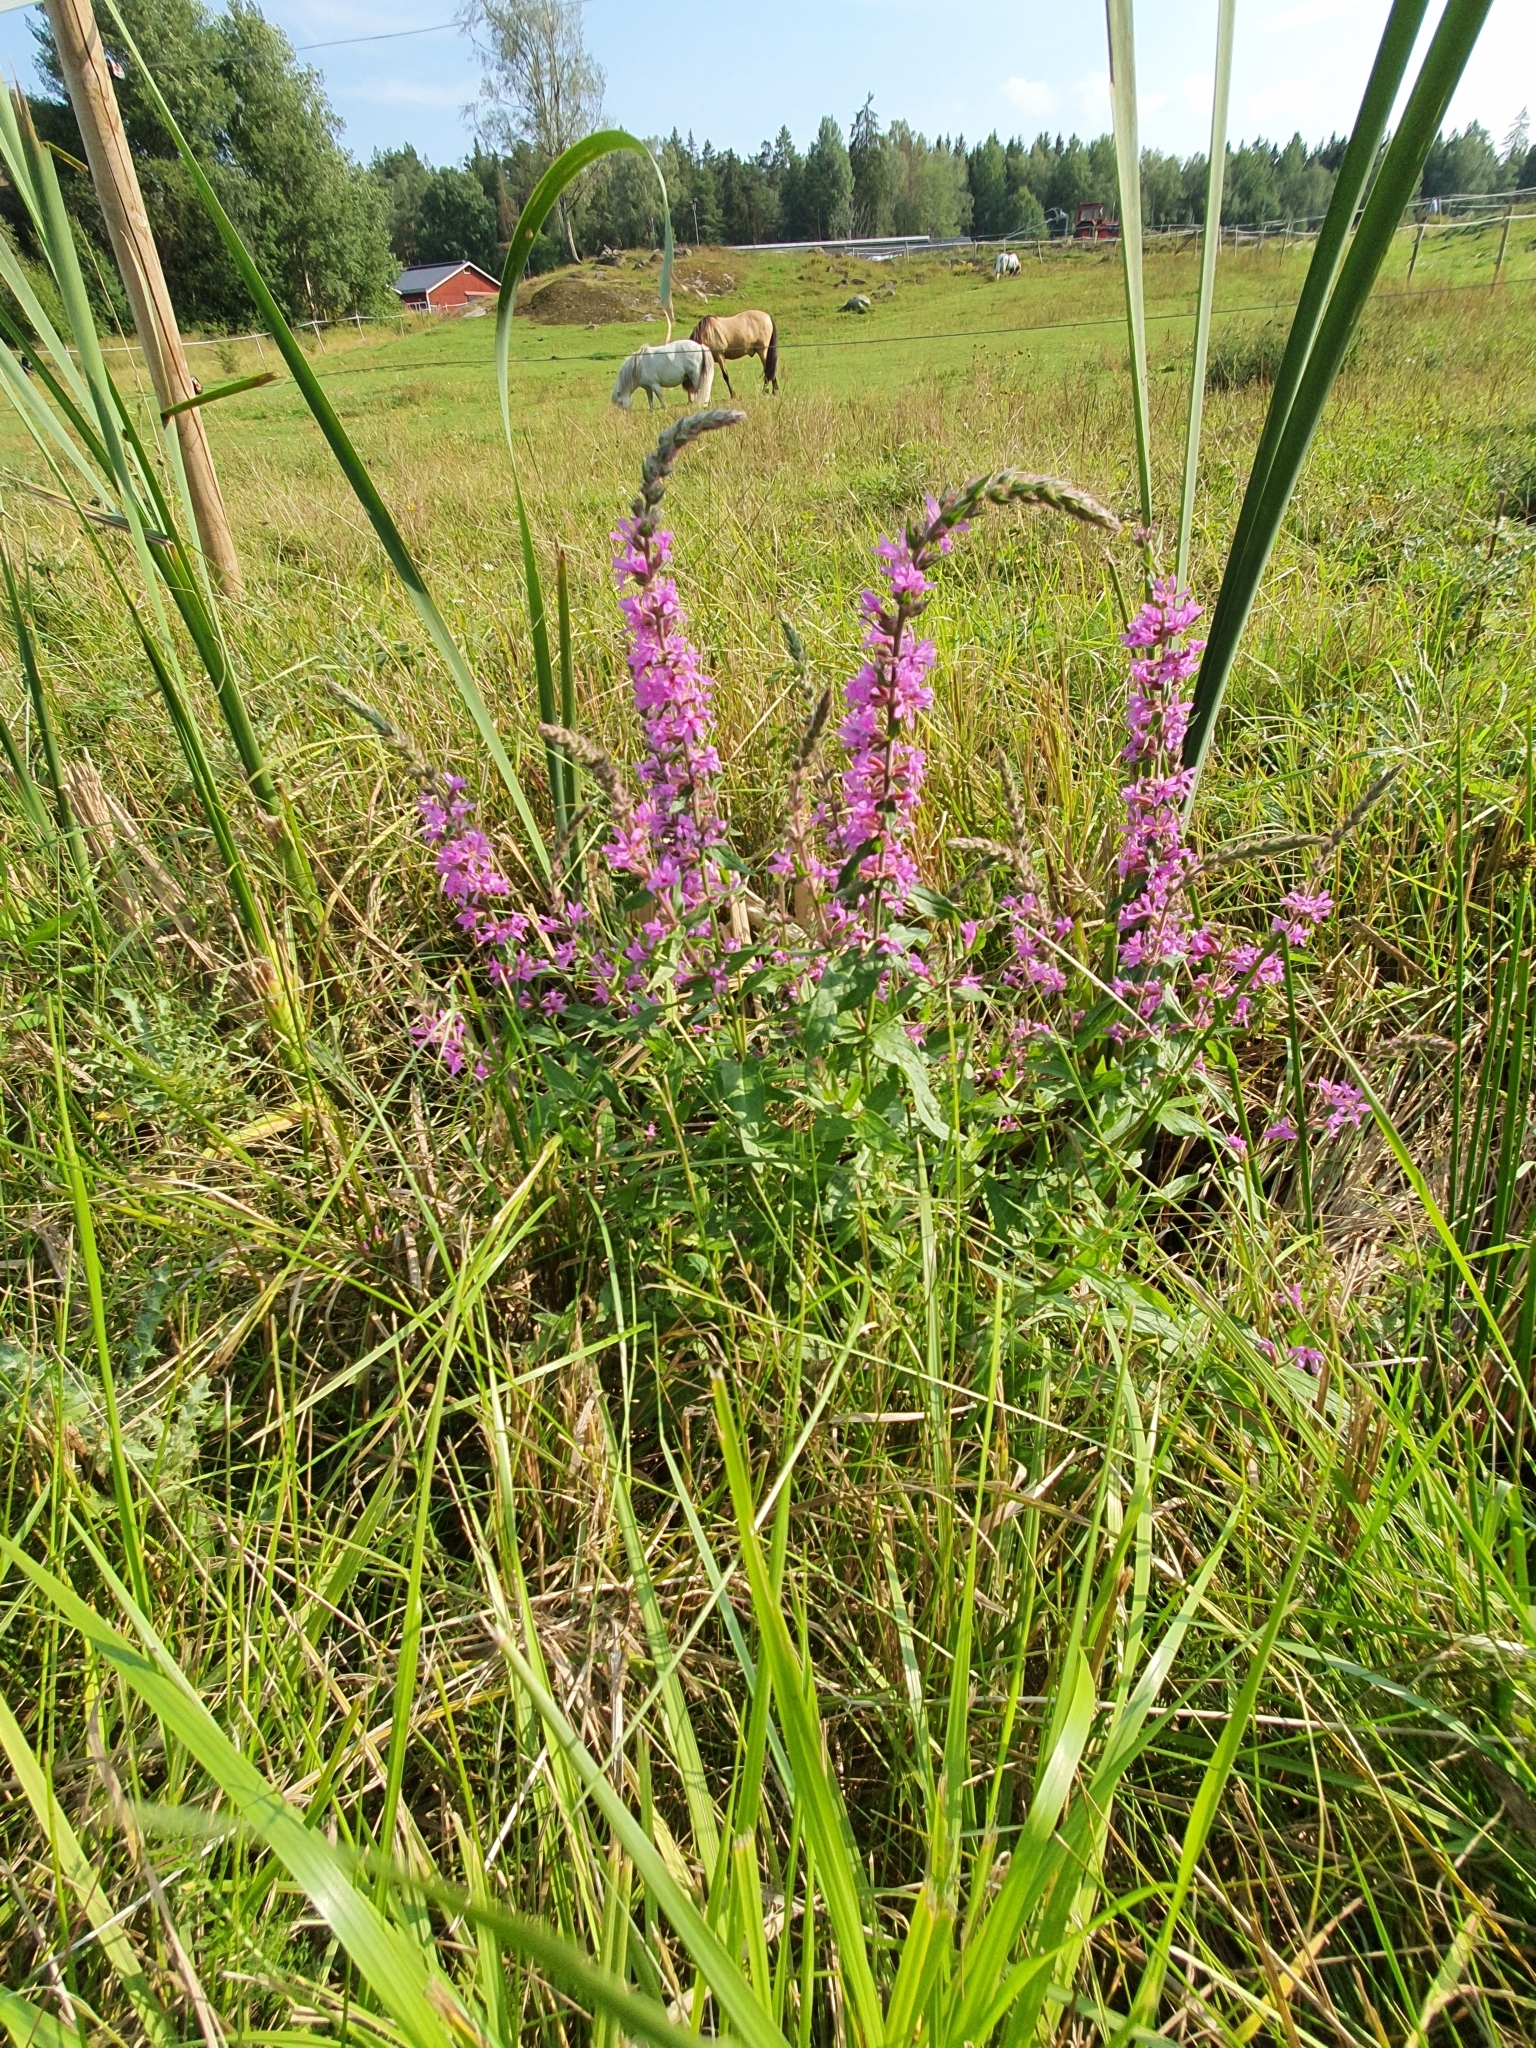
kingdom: Plantae
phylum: Tracheophyta
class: Magnoliopsida
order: Myrtales
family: Lythraceae
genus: Lythrum
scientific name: Lythrum salicaria
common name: Purple loosestrife
